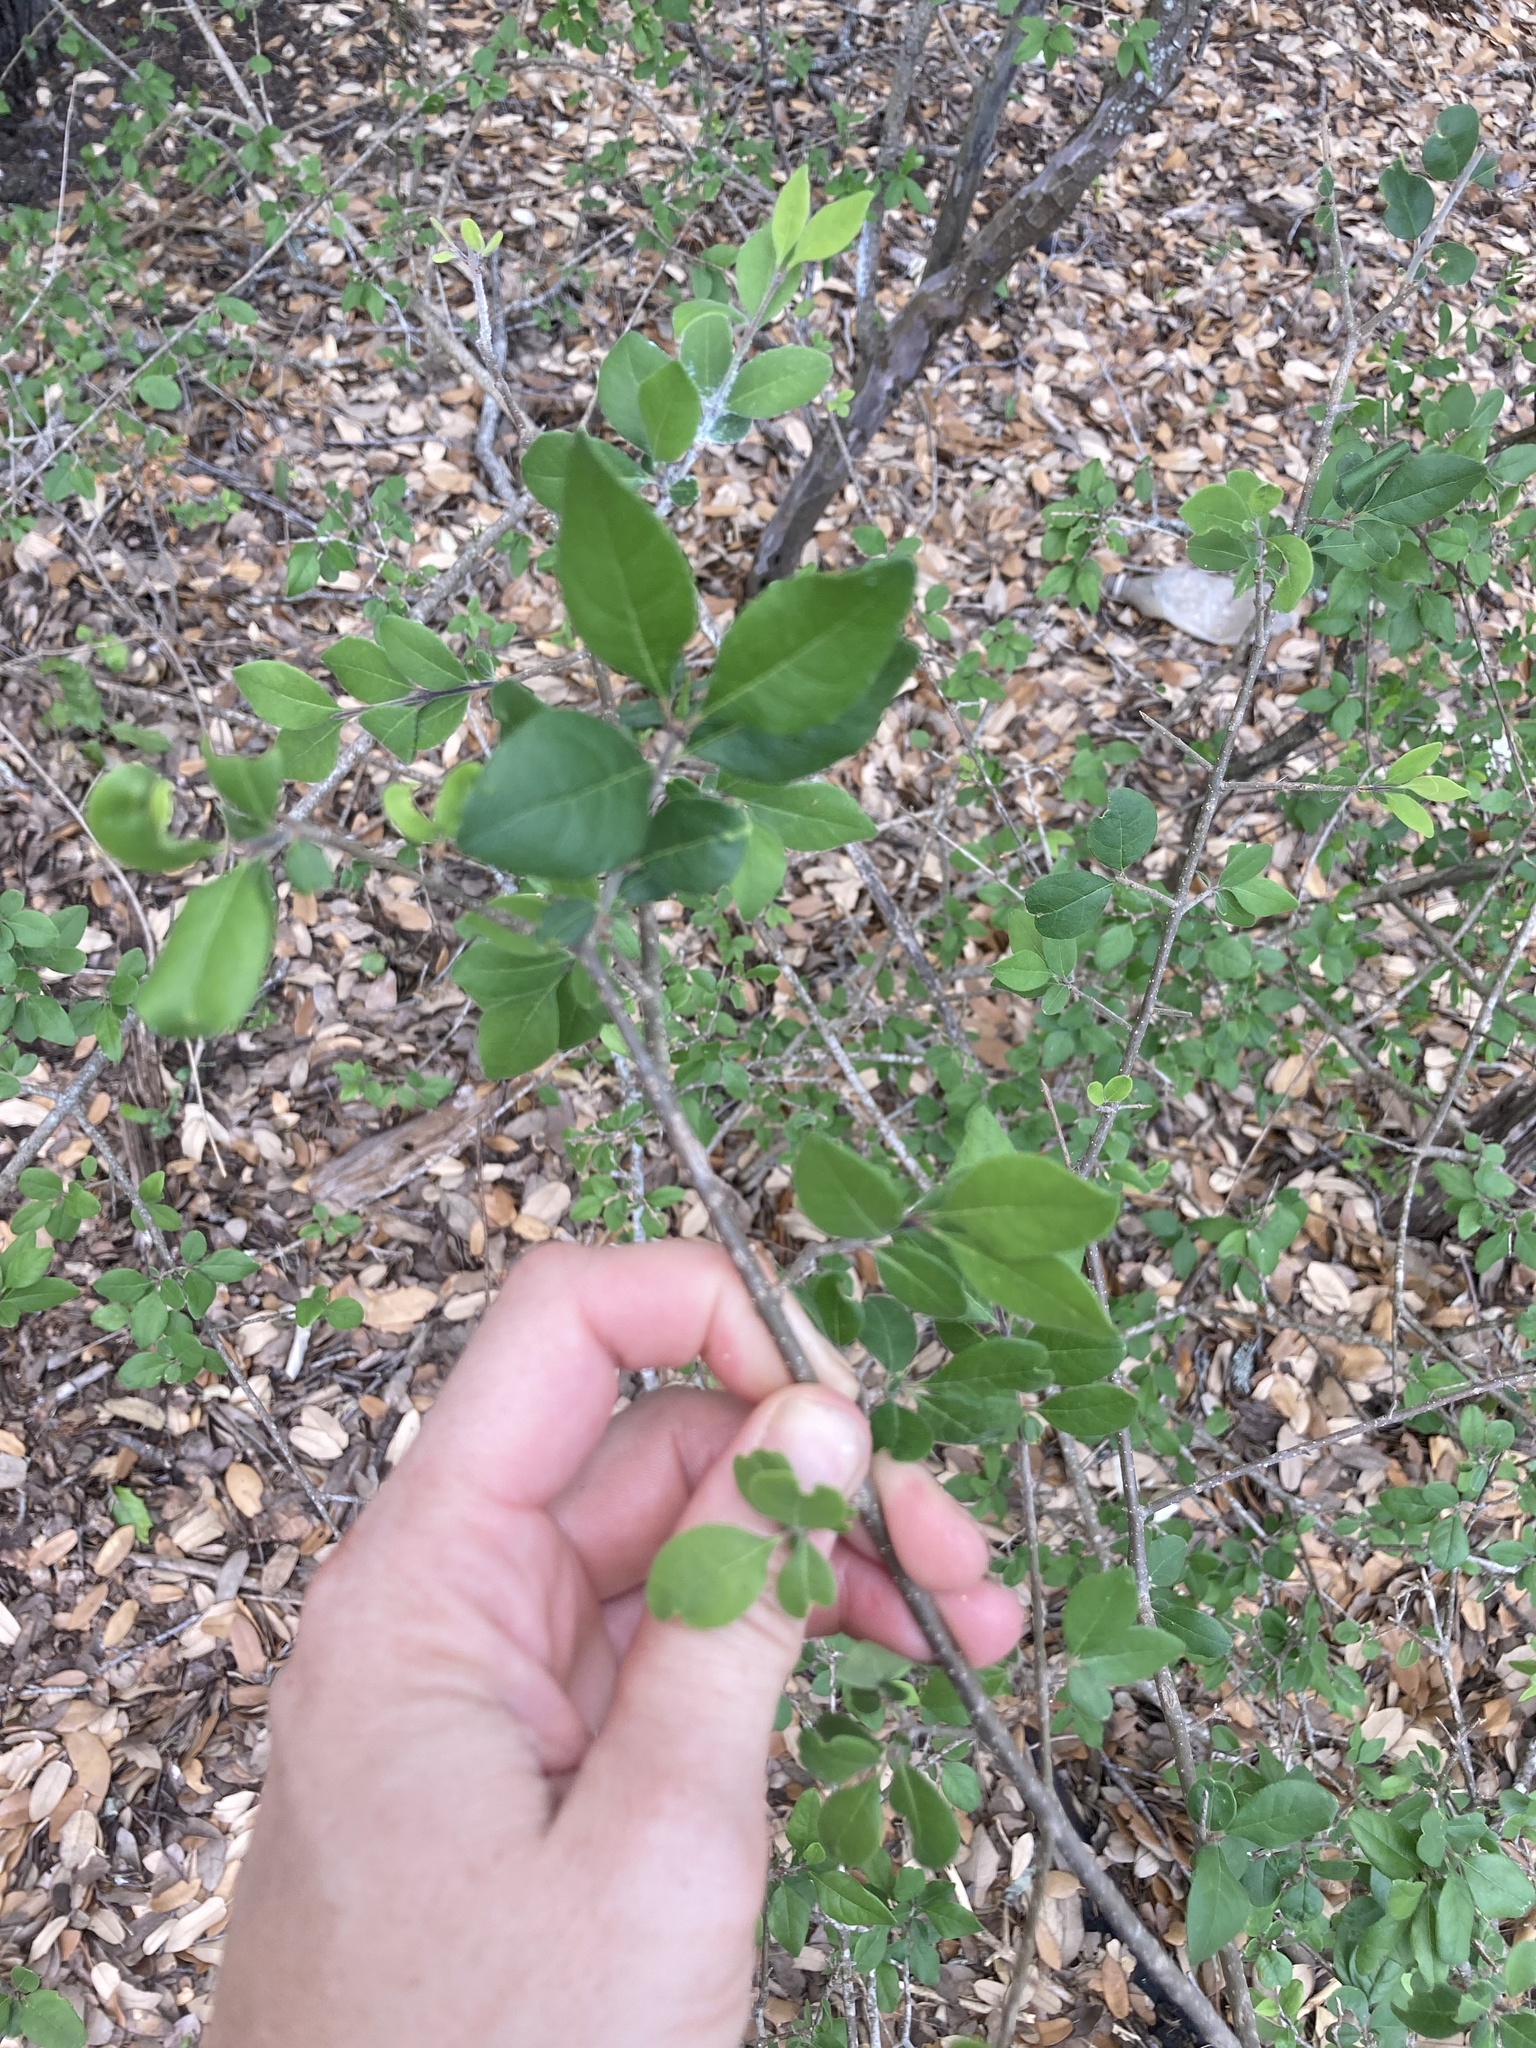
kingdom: Plantae
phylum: Tracheophyta
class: Magnoliopsida
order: Lamiales
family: Oleaceae
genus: Forestiera
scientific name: Forestiera pubescens
